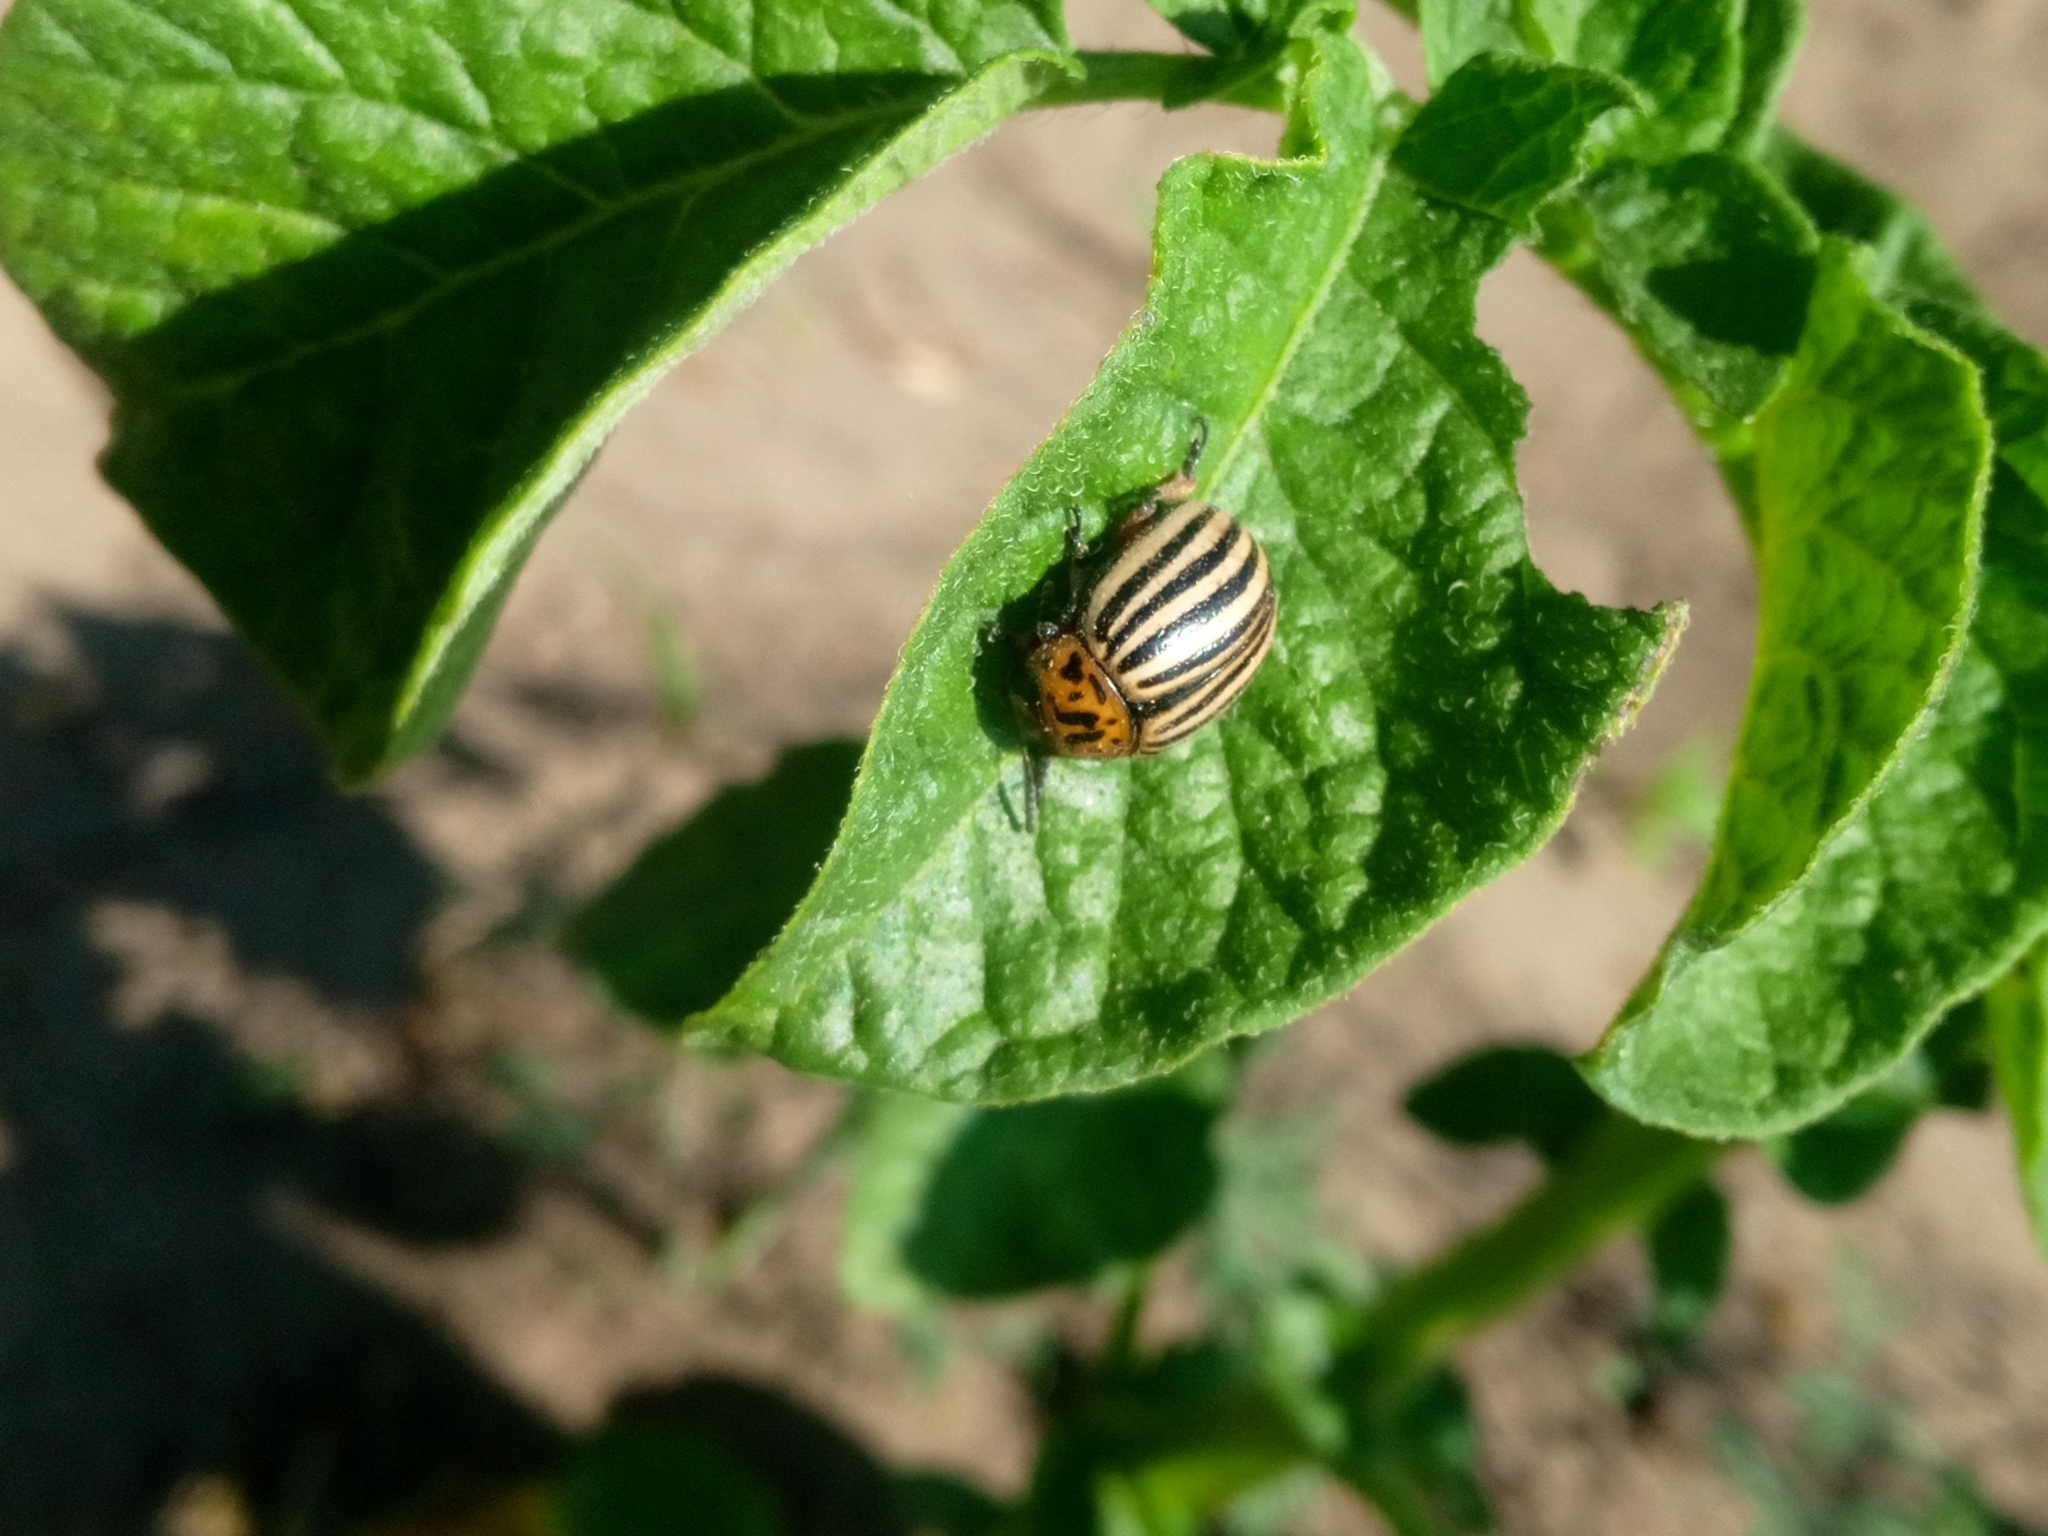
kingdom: Animalia
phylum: Arthropoda
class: Insecta
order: Coleoptera
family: Chrysomelidae
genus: Leptinotarsa
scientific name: Leptinotarsa decemlineata
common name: Colorado potato beetle
